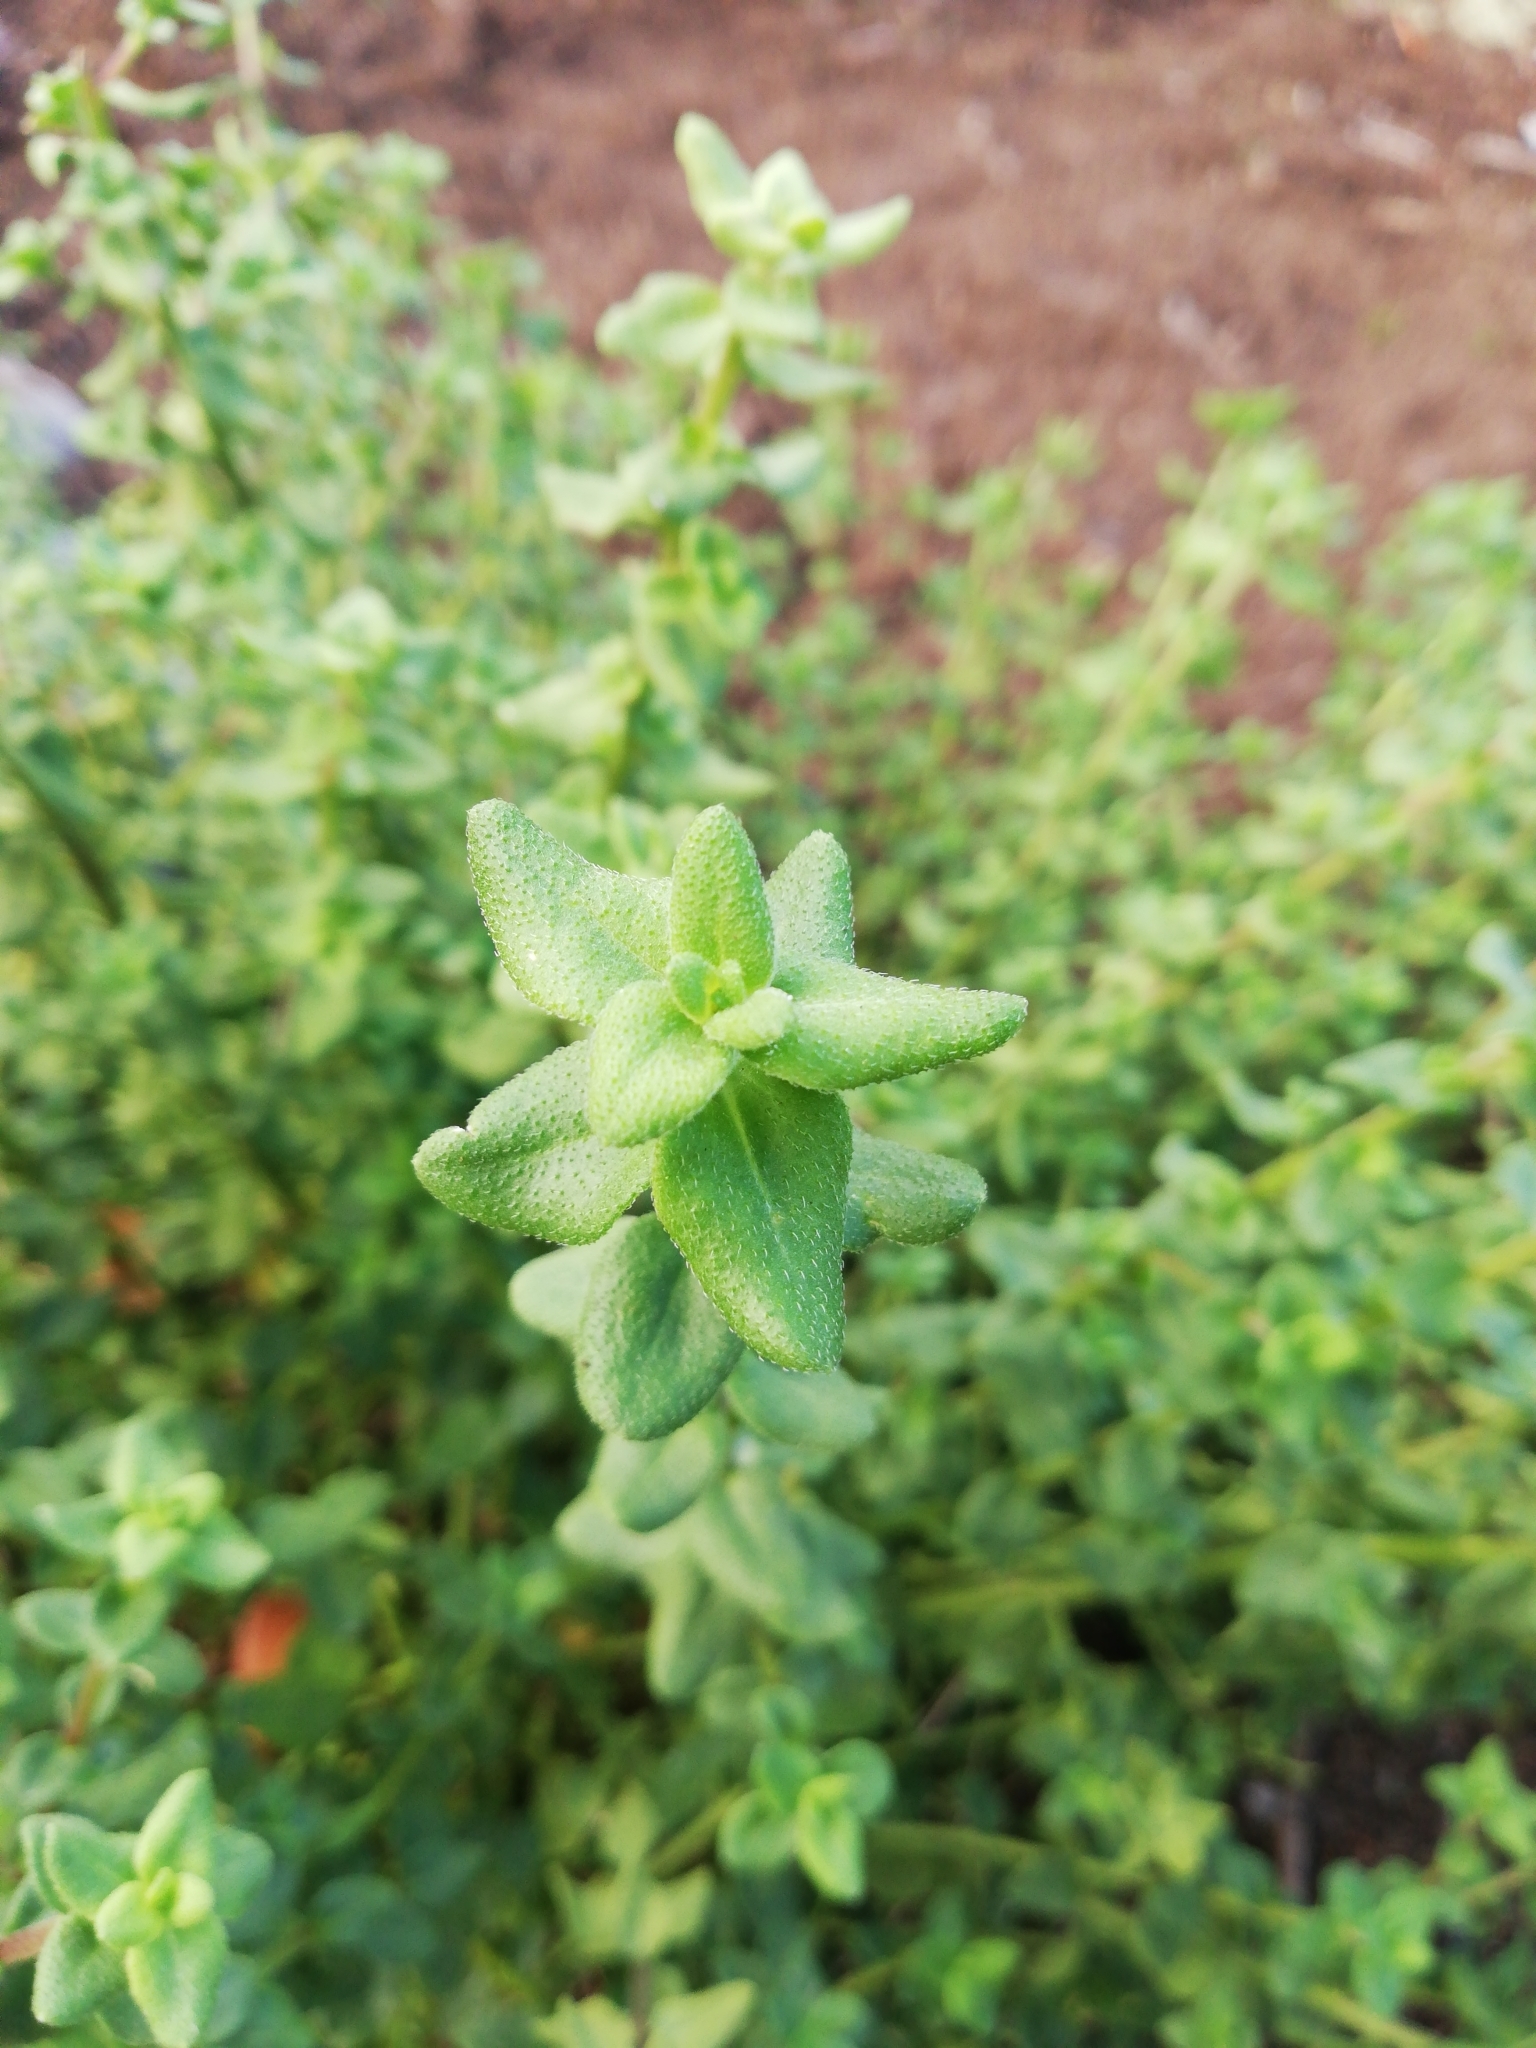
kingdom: Plantae
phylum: Tracheophyta
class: Magnoliopsida
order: Asterales
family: Asteraceae
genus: Felicia
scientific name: Felicia amelloides
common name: Blue marguerite
